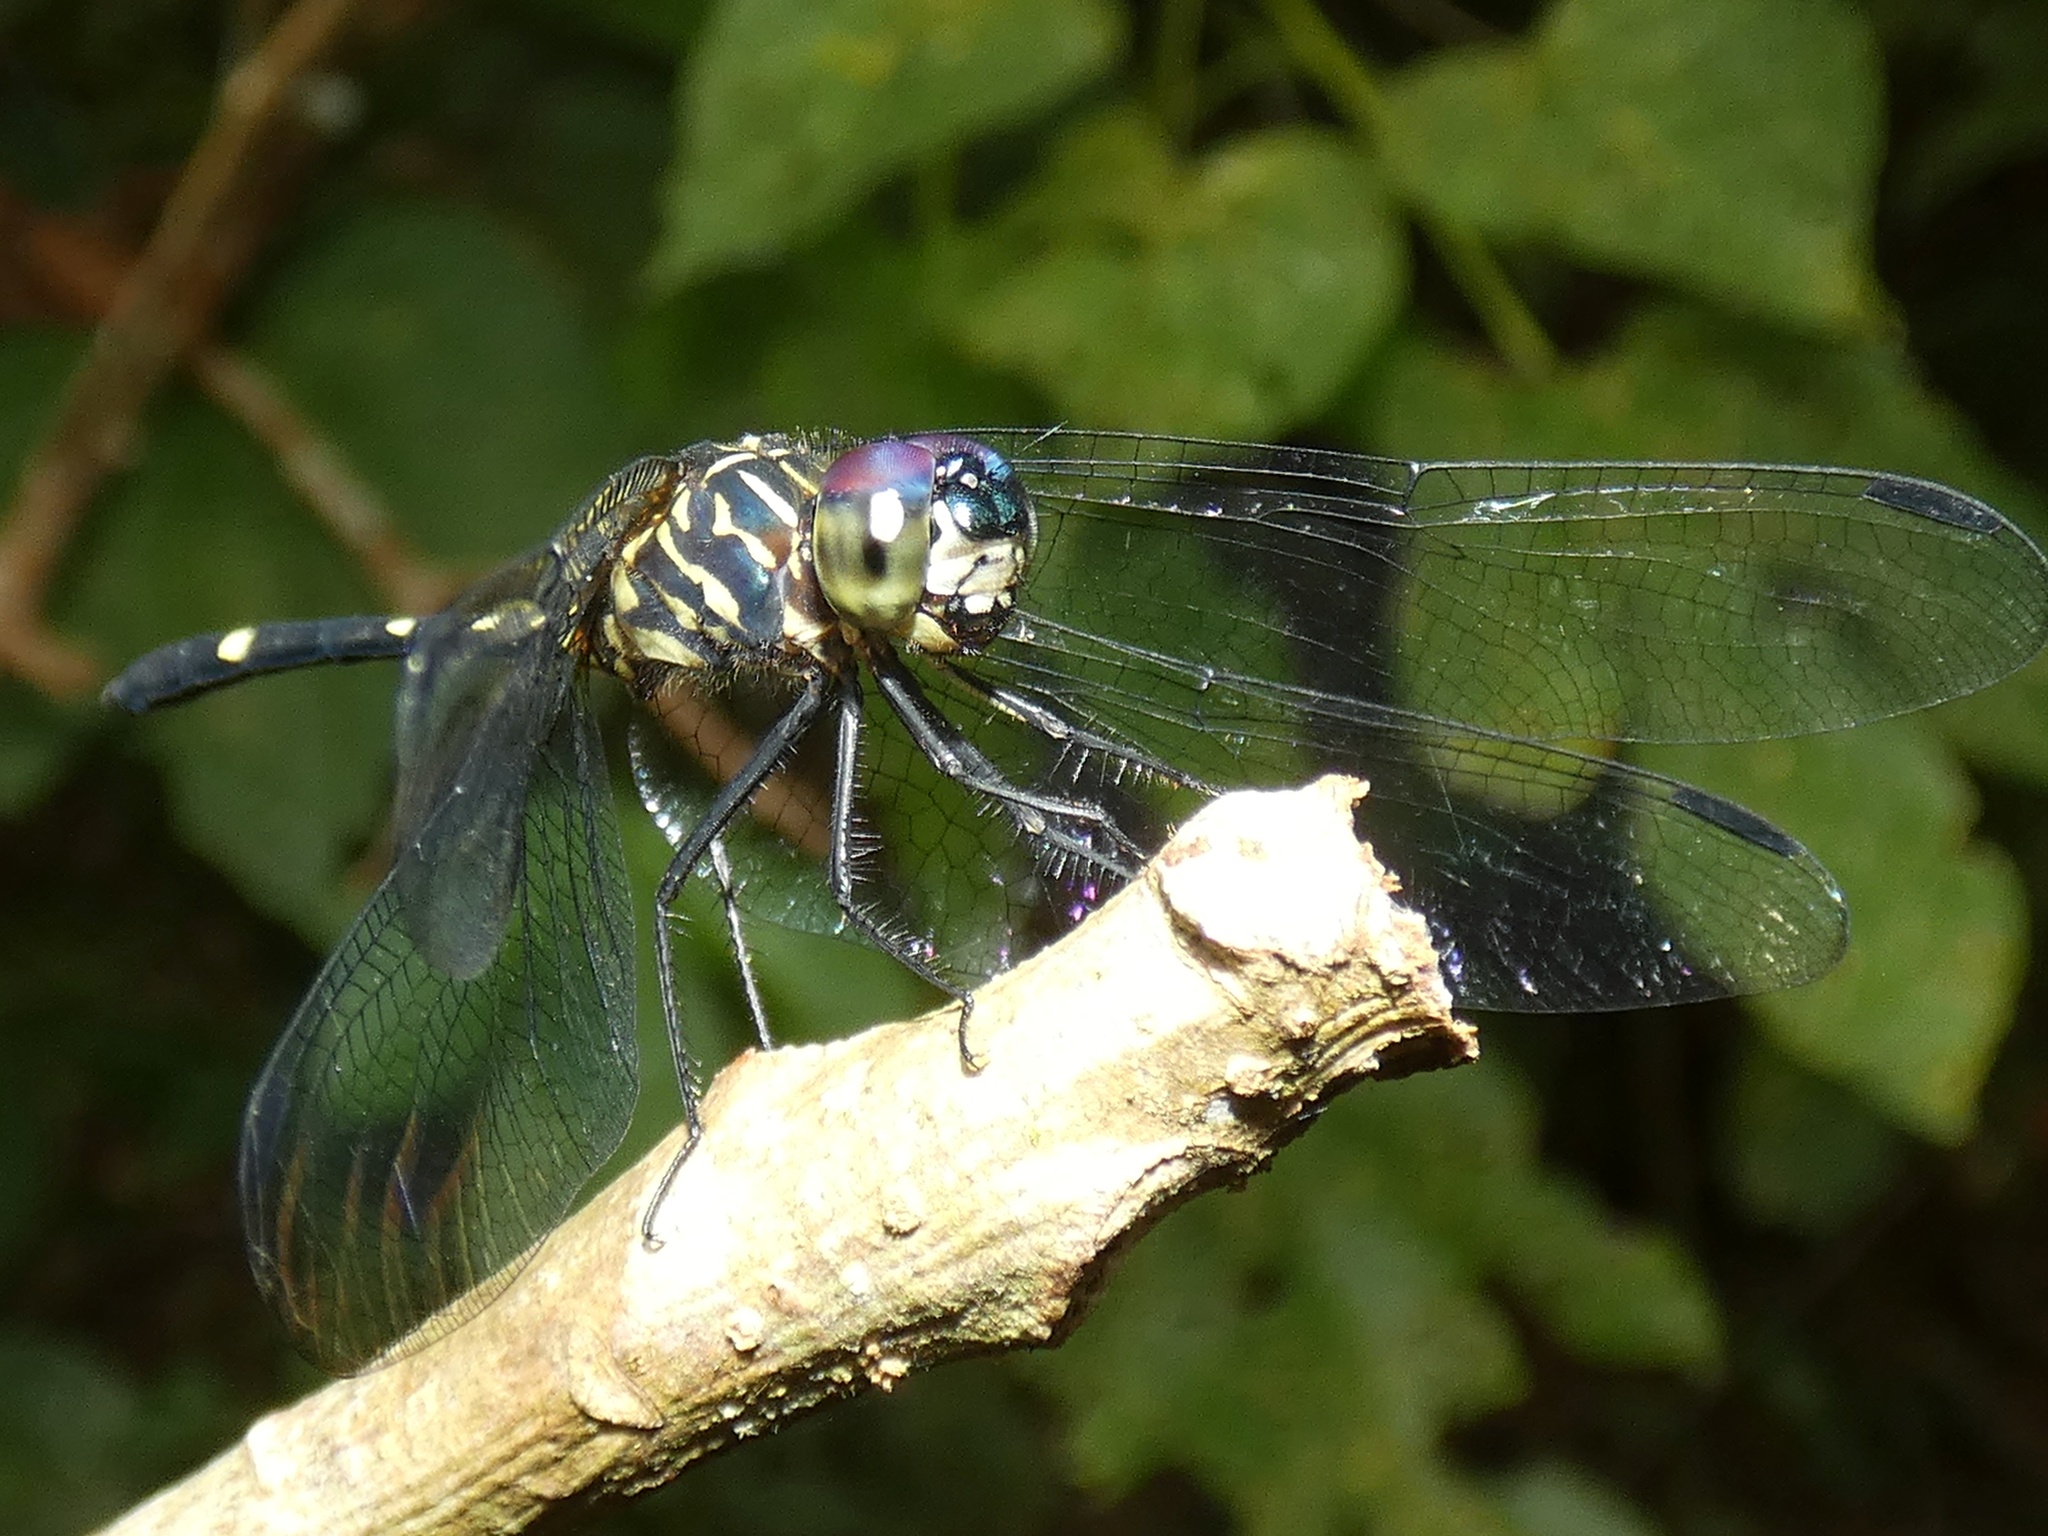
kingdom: Animalia
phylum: Arthropoda
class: Insecta
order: Odonata
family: Libellulidae
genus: Dythemis
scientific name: Dythemis nigra
